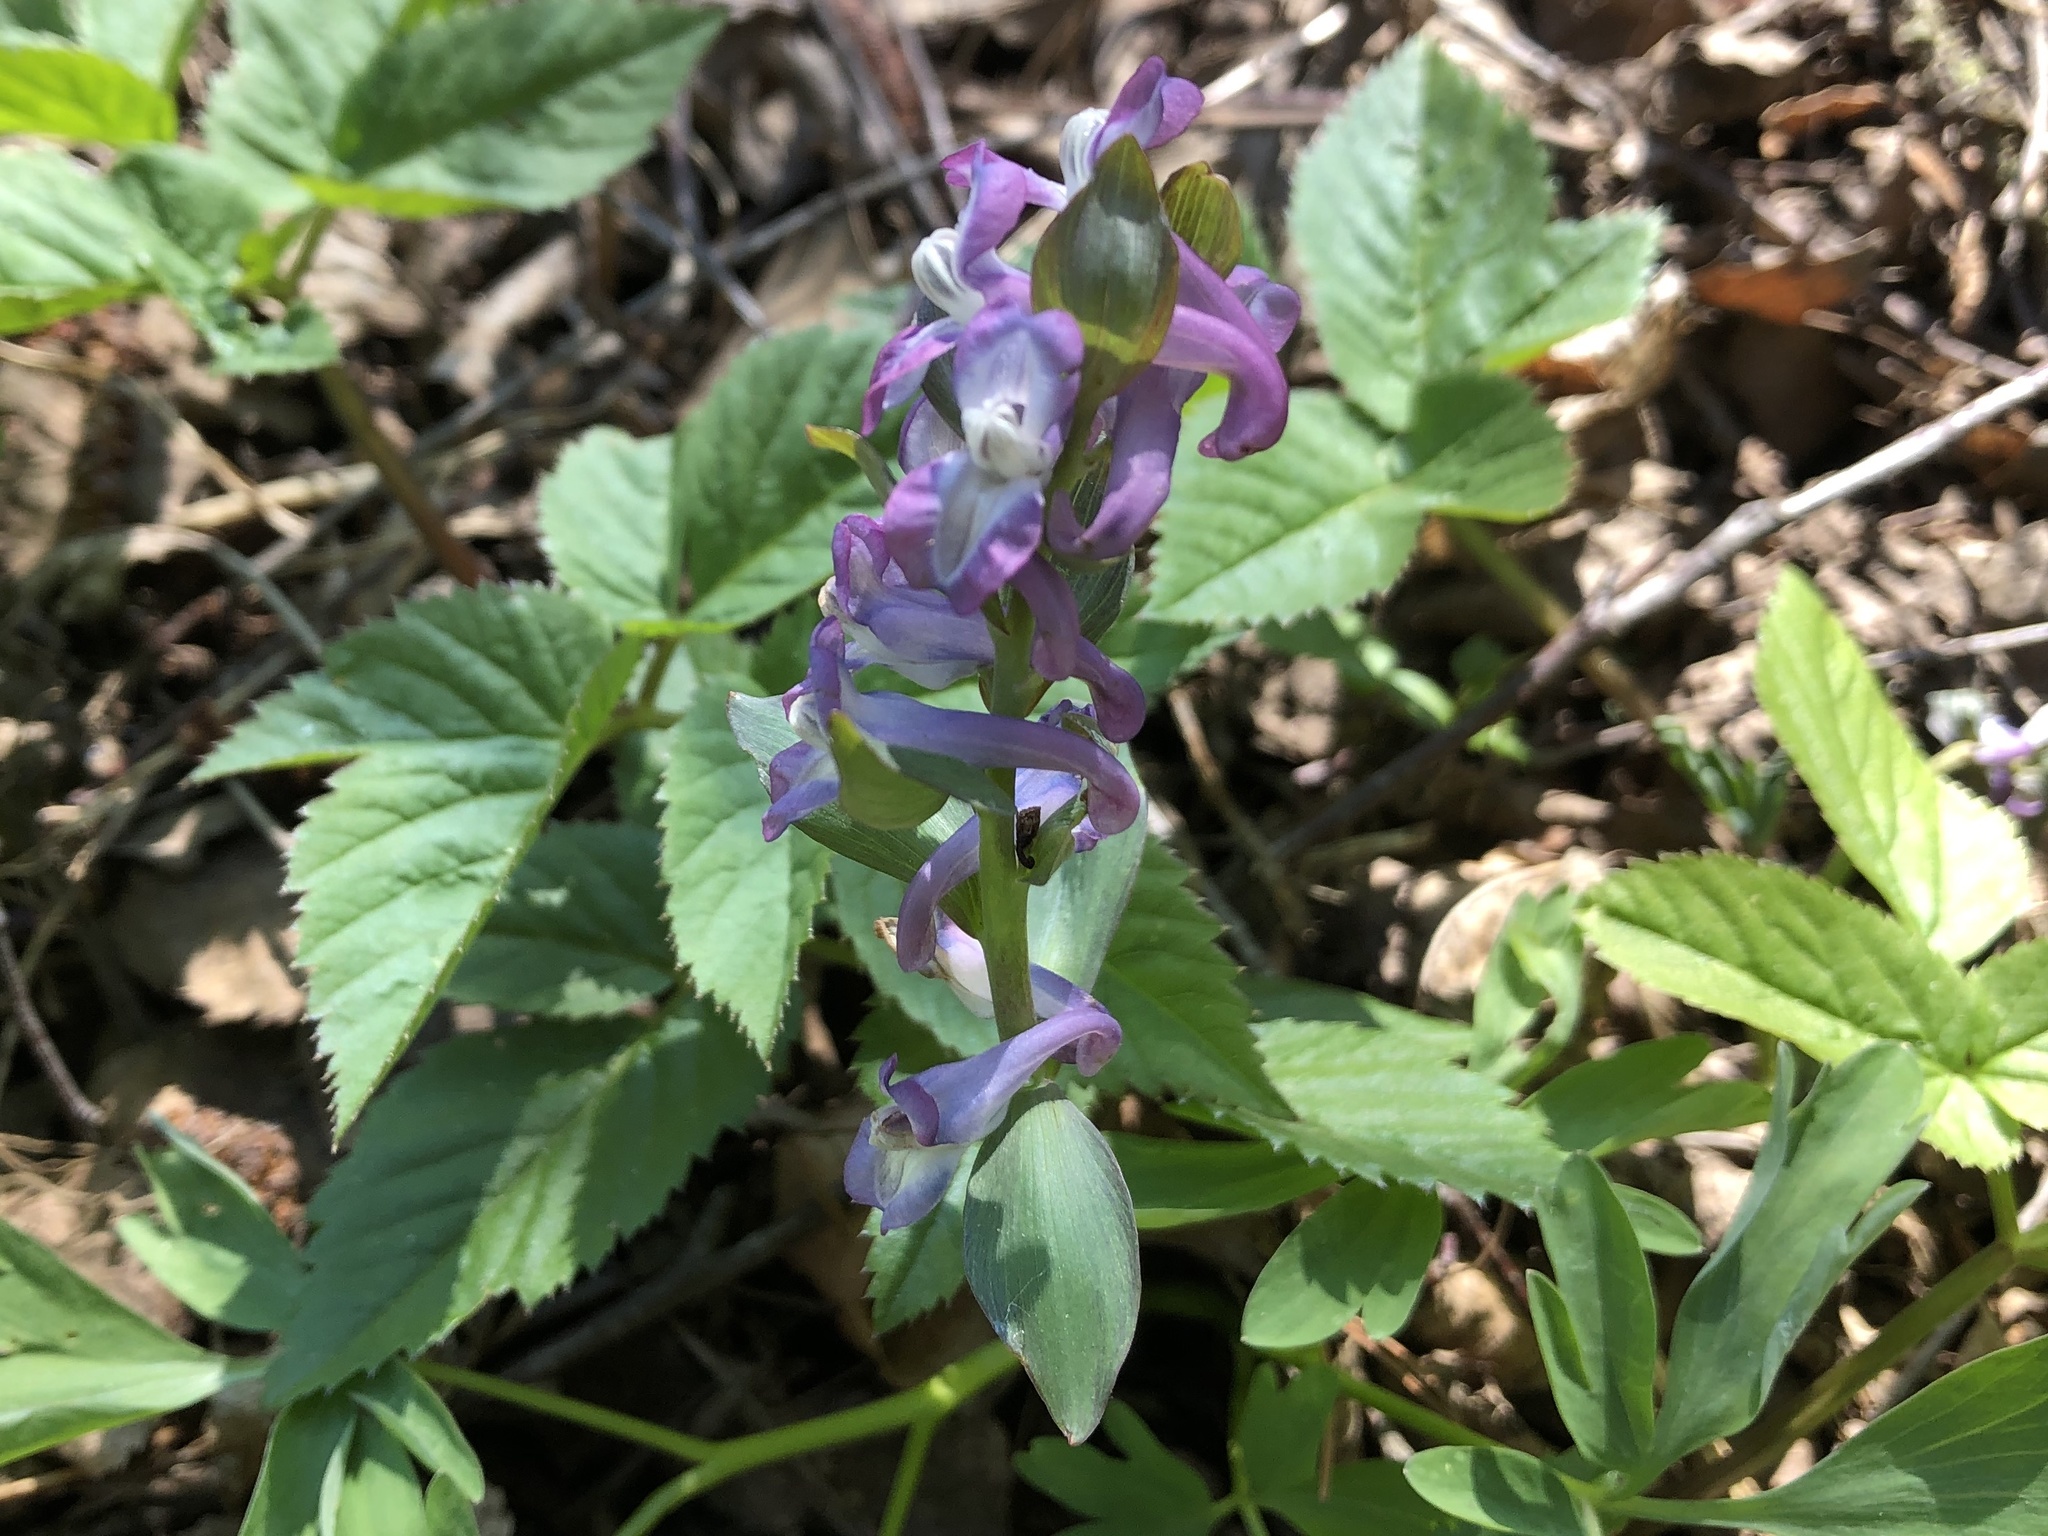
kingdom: Plantae
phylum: Tracheophyta
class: Magnoliopsida
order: Ranunculales
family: Papaveraceae
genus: Corydalis
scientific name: Corydalis cava
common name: Hollowroot
